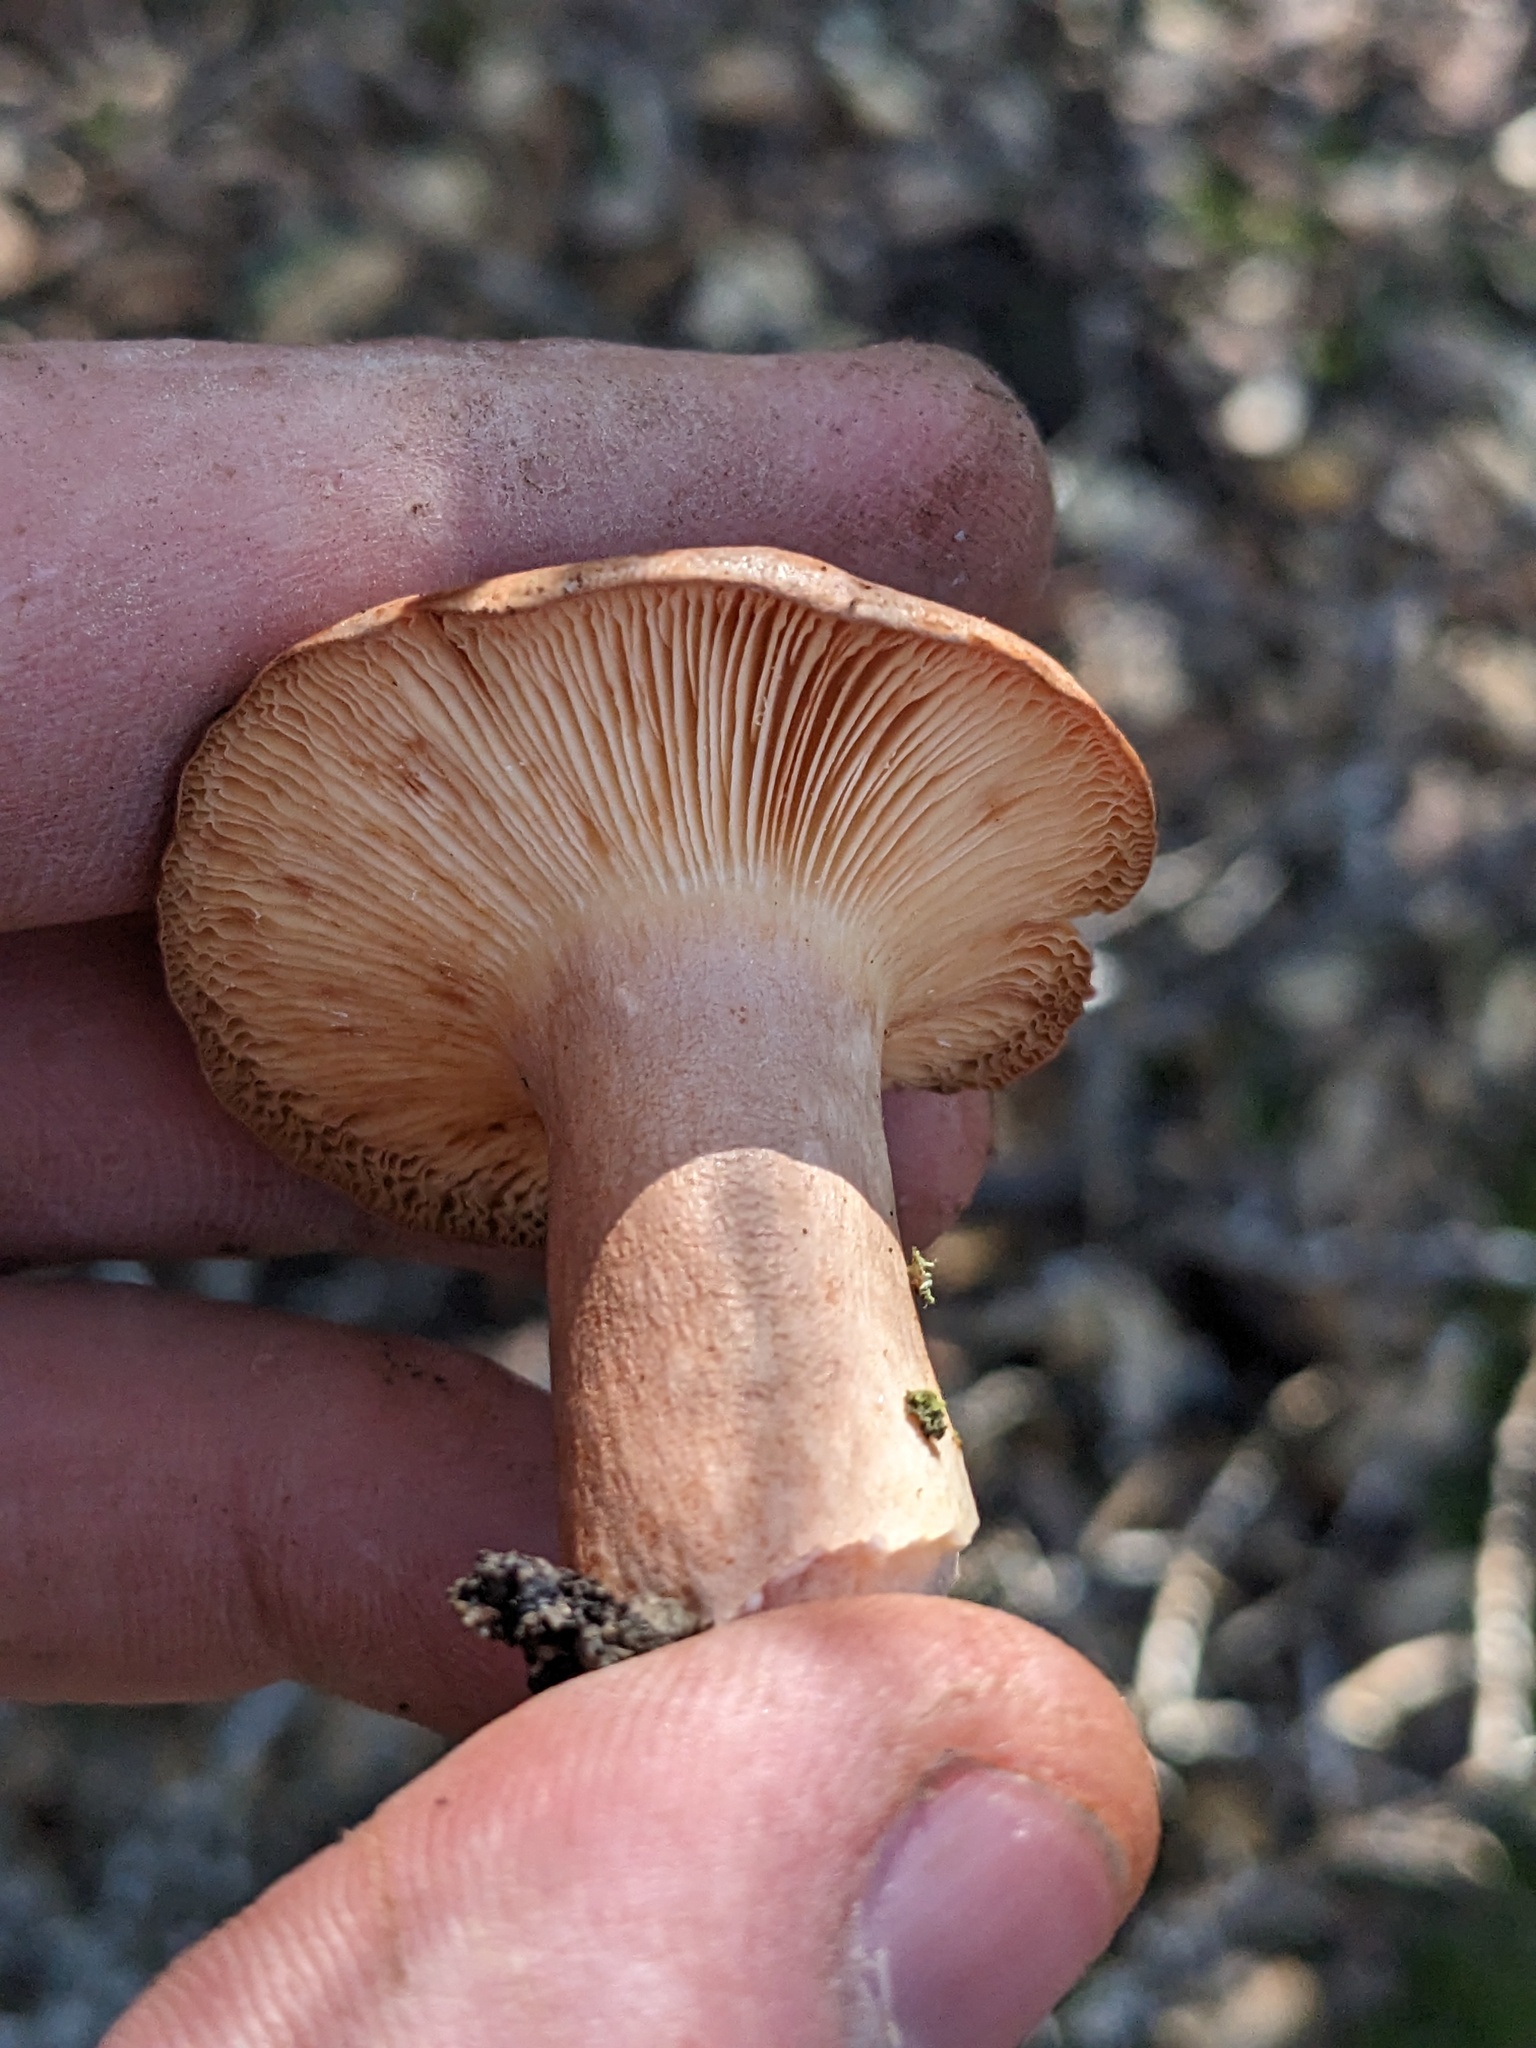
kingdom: Fungi
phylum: Basidiomycota
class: Agaricomycetes
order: Russulales
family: Russulaceae
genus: Lactarius
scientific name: Lactarius xanthogalactus
